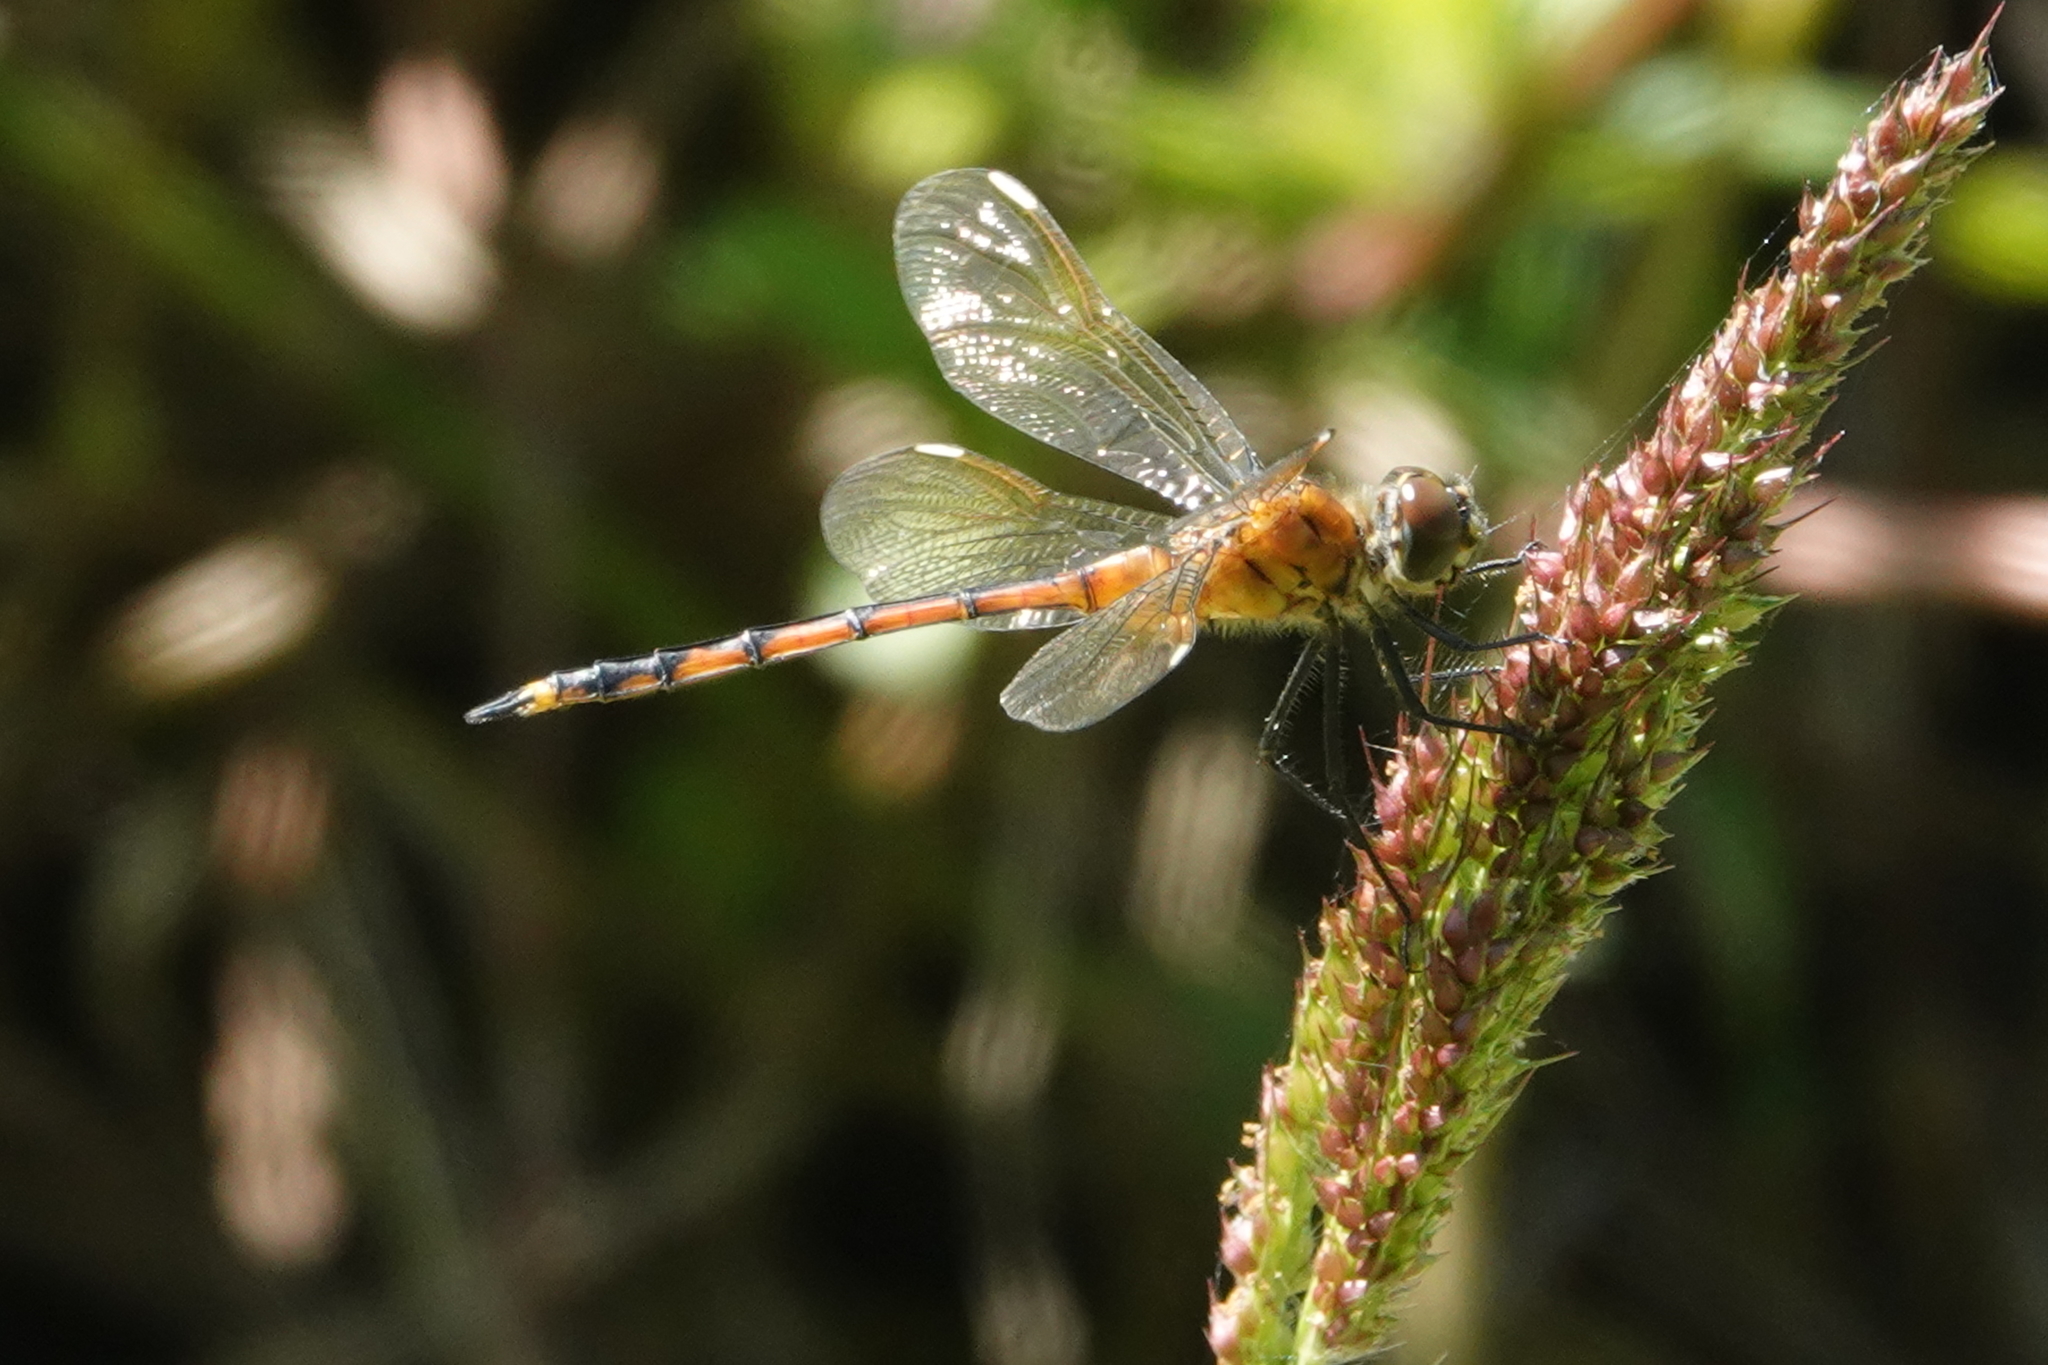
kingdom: Animalia
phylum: Arthropoda
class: Insecta
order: Odonata
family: Libellulidae
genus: Brachymesia
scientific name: Brachymesia gravida
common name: Four-spotted pennant
